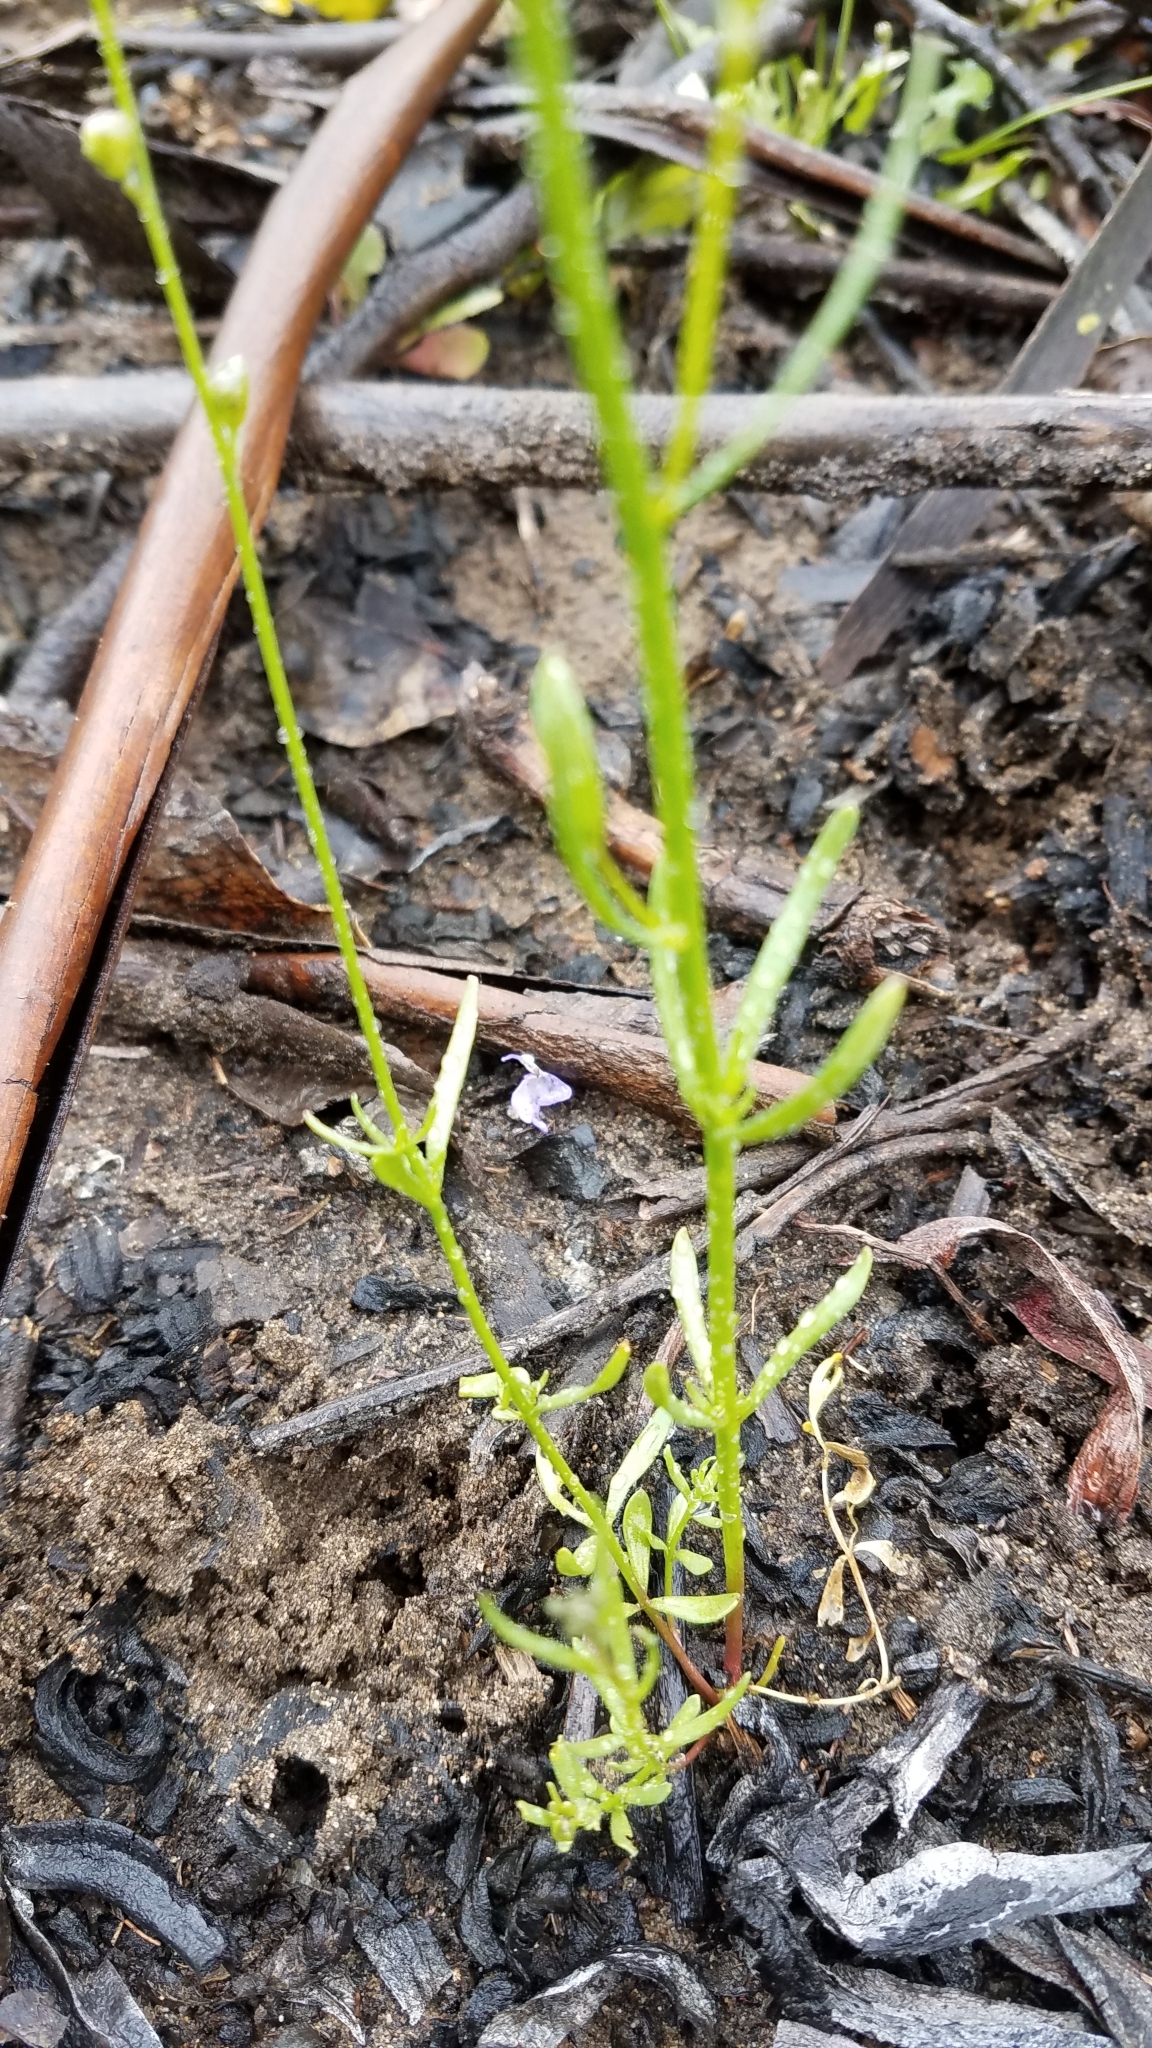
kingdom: Plantae
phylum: Tracheophyta
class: Magnoliopsida
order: Lamiales
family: Plantaginaceae
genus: Nuttallanthus
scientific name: Nuttallanthus texanus
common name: Texas toadflax
